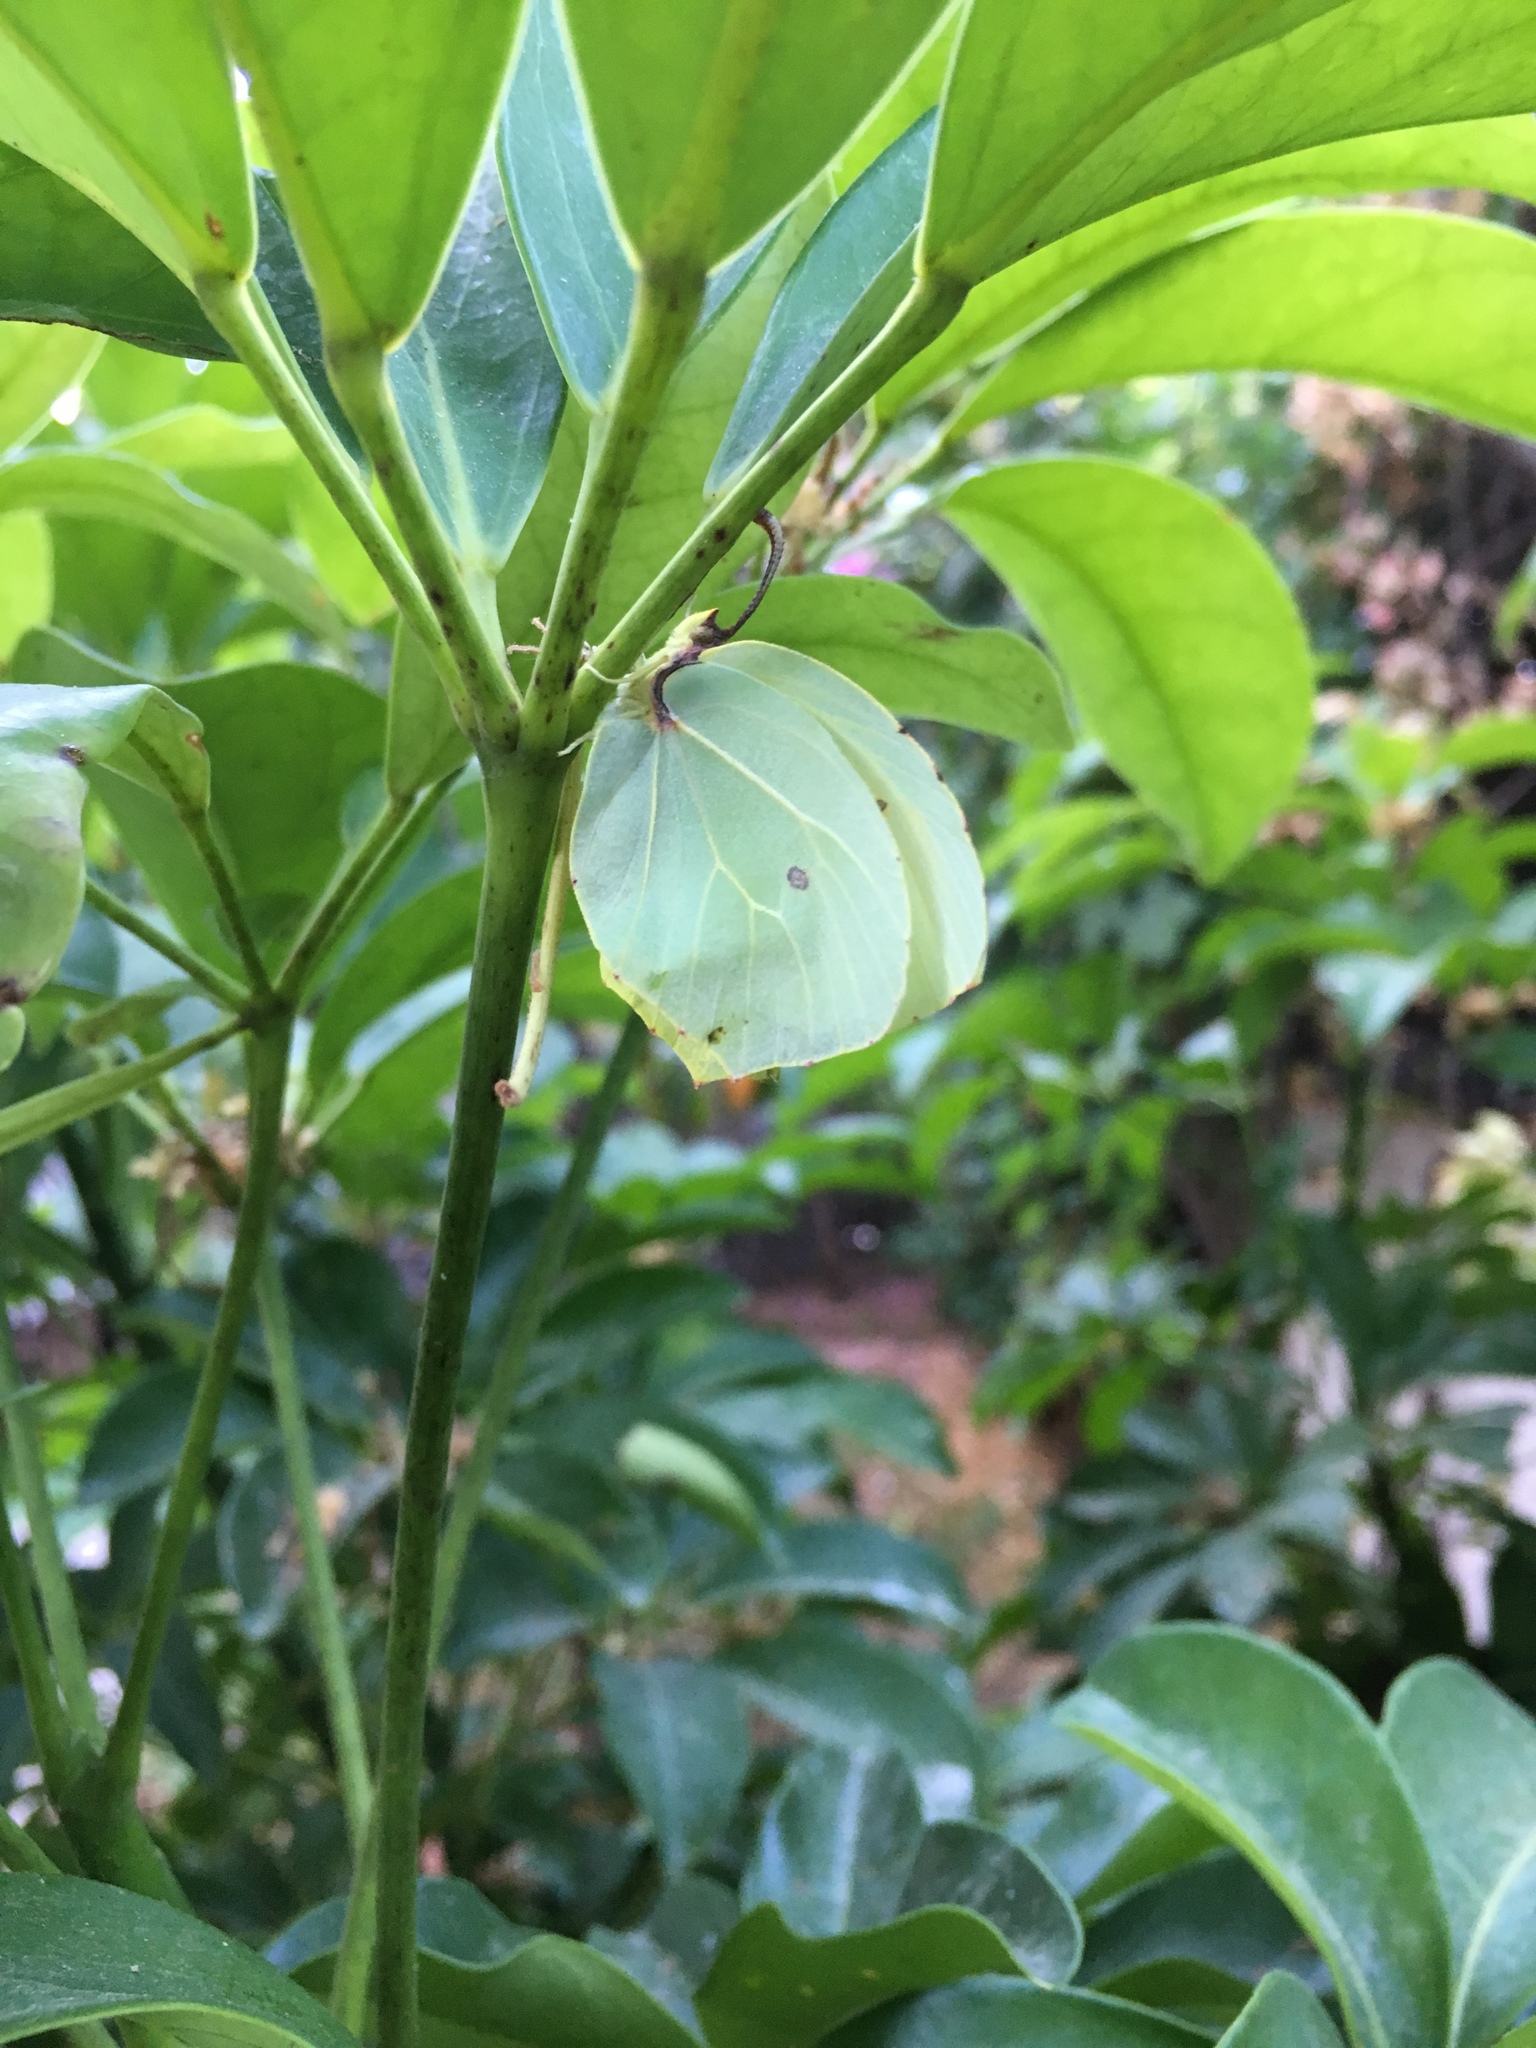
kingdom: Animalia
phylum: Arthropoda
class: Insecta
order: Lepidoptera
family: Pieridae
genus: Gonepteryx
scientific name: Gonepteryx cleopatra
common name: Cleopatra
